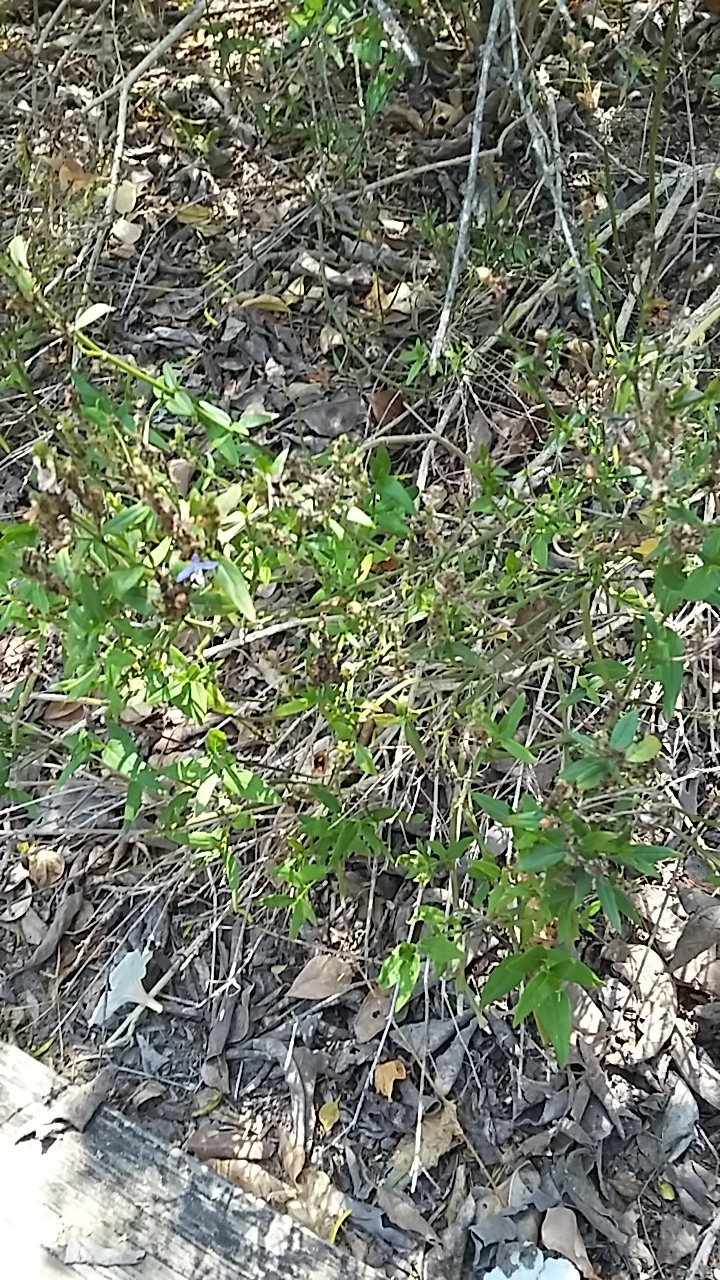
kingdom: Plantae
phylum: Tracheophyta
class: Magnoliopsida
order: Lamiales
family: Acanthaceae
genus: Carlowrightia
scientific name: Carlowrightia parviflora
